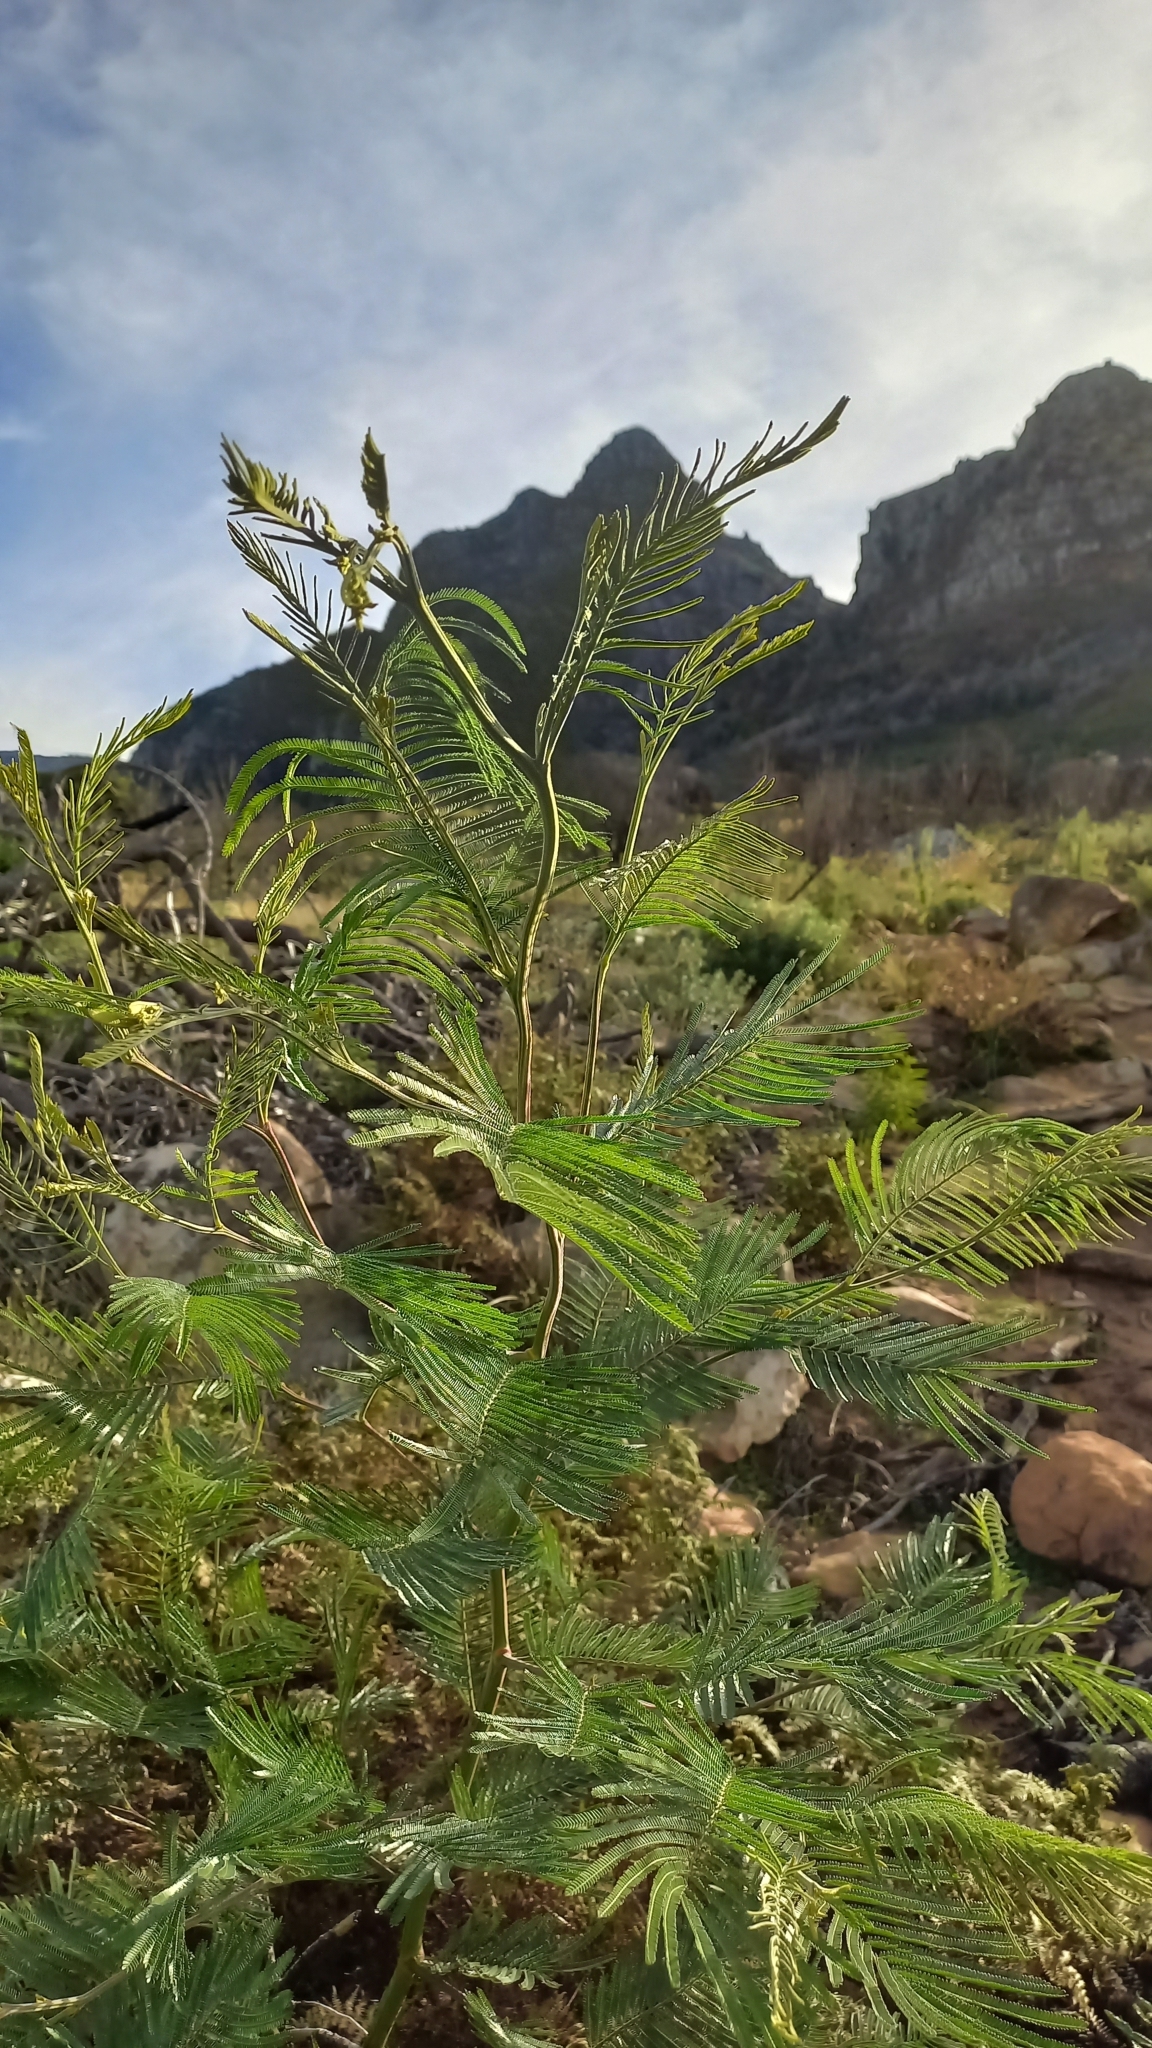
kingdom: Plantae
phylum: Tracheophyta
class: Magnoliopsida
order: Fabales
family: Fabaceae
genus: Acacia
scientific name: Acacia mearnsii
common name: Black wattle
